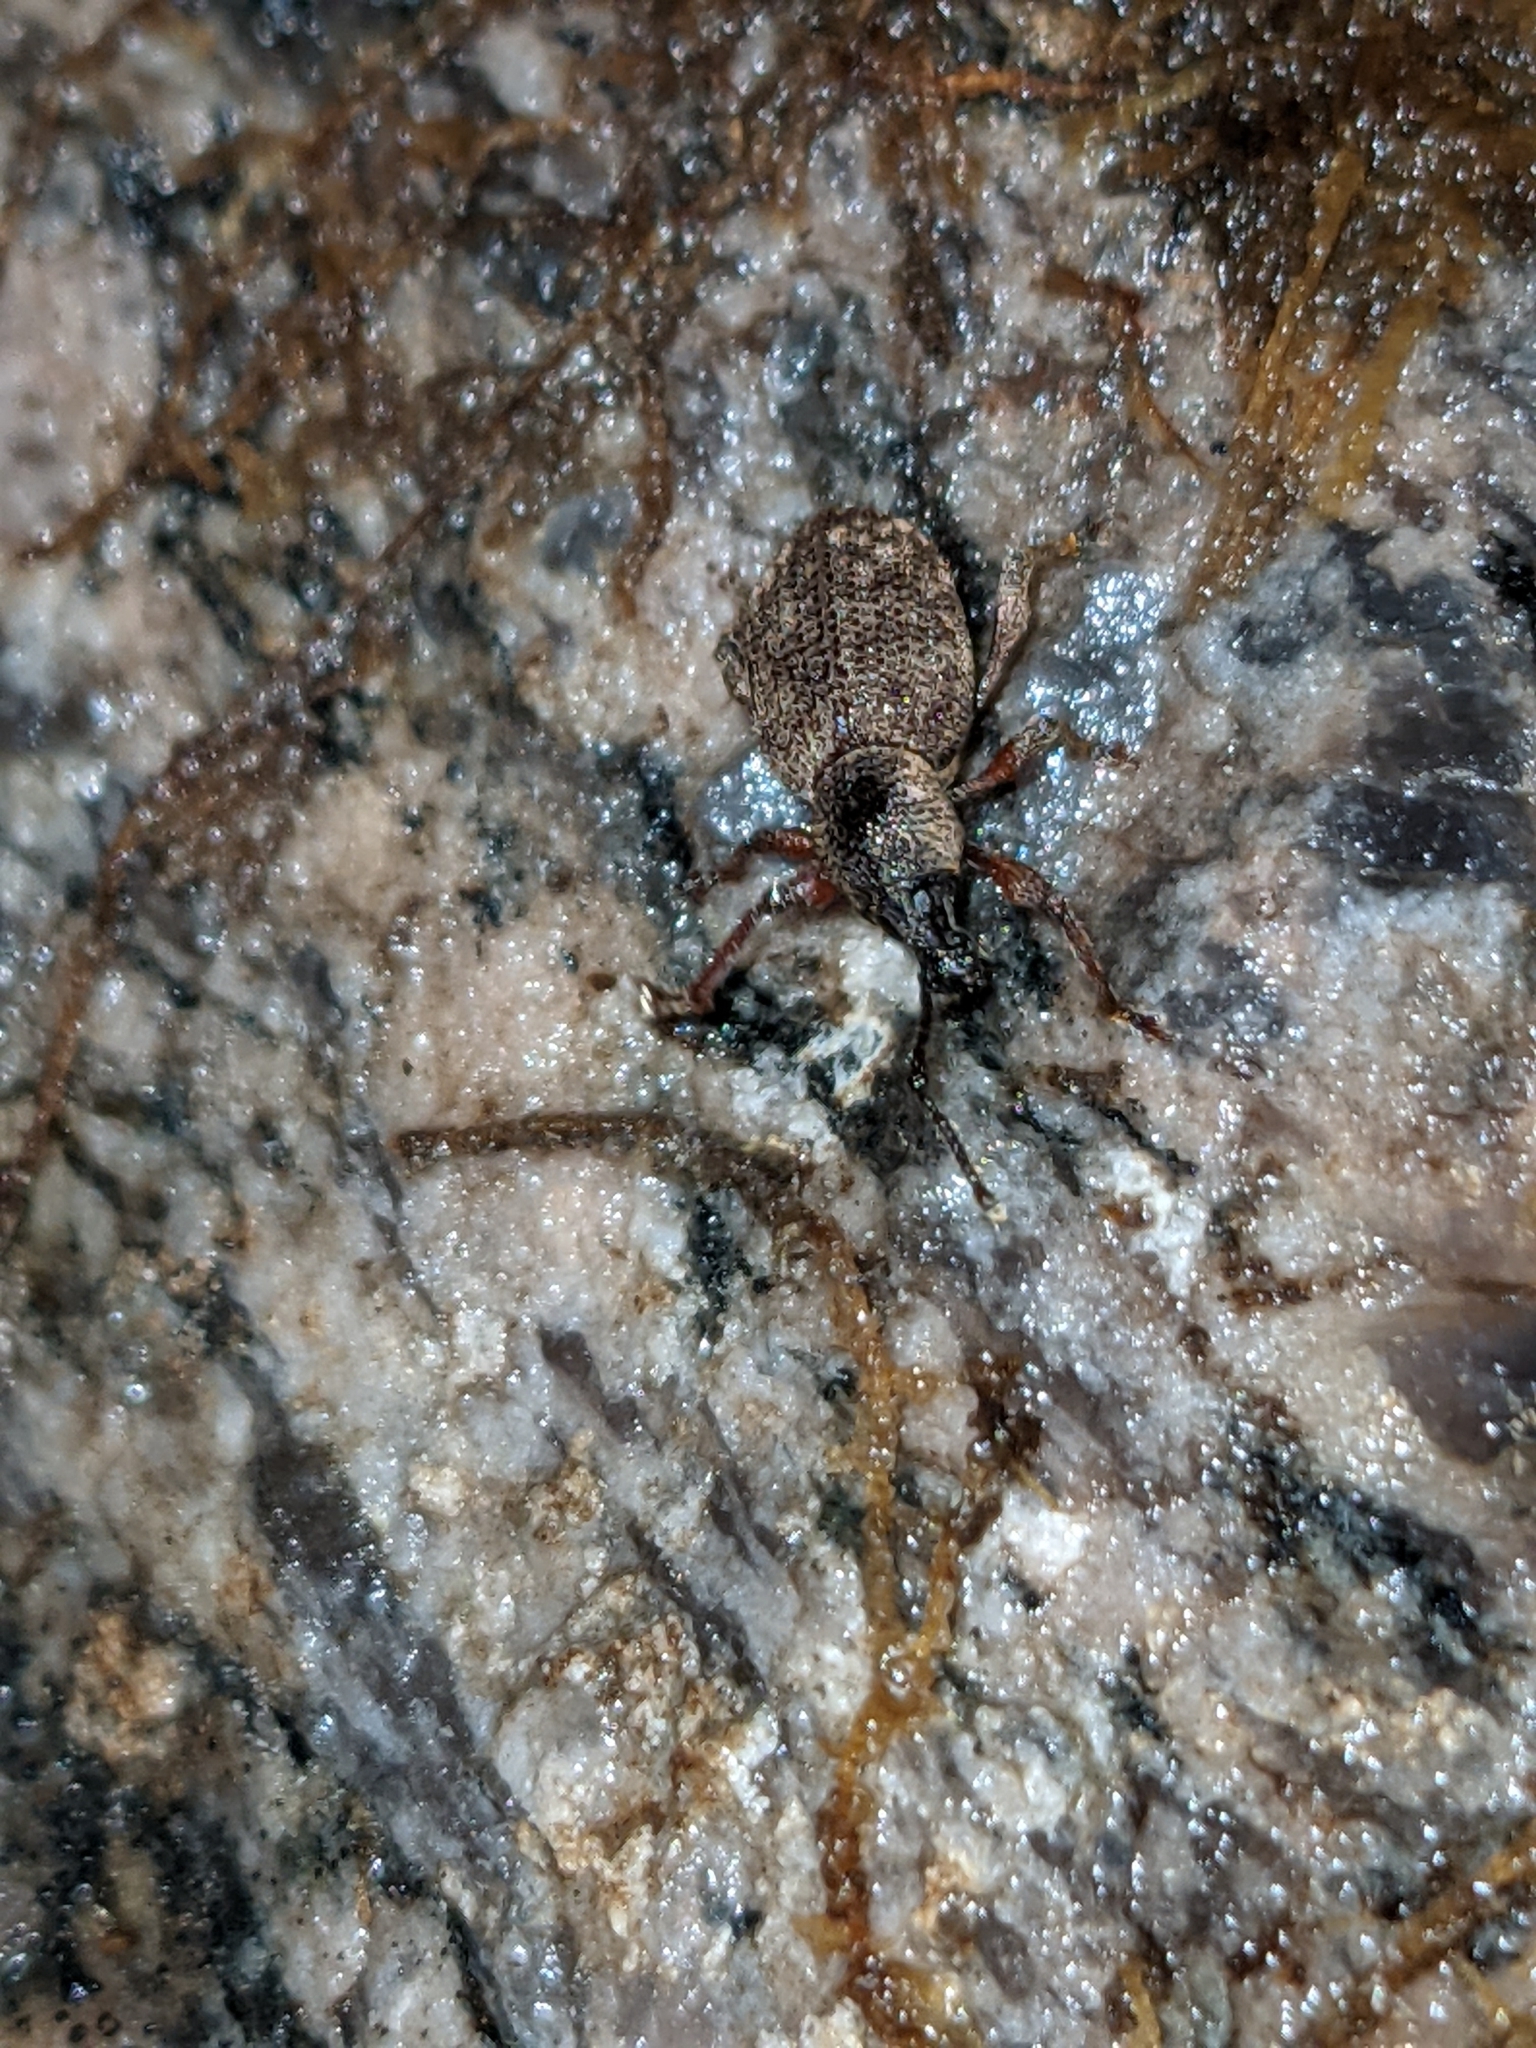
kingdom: Animalia
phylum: Arthropoda
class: Insecta
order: Coleoptera
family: Curculionidae
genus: Otiorhynchus
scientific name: Otiorhynchus singularis
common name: Clay-coloured weevil
